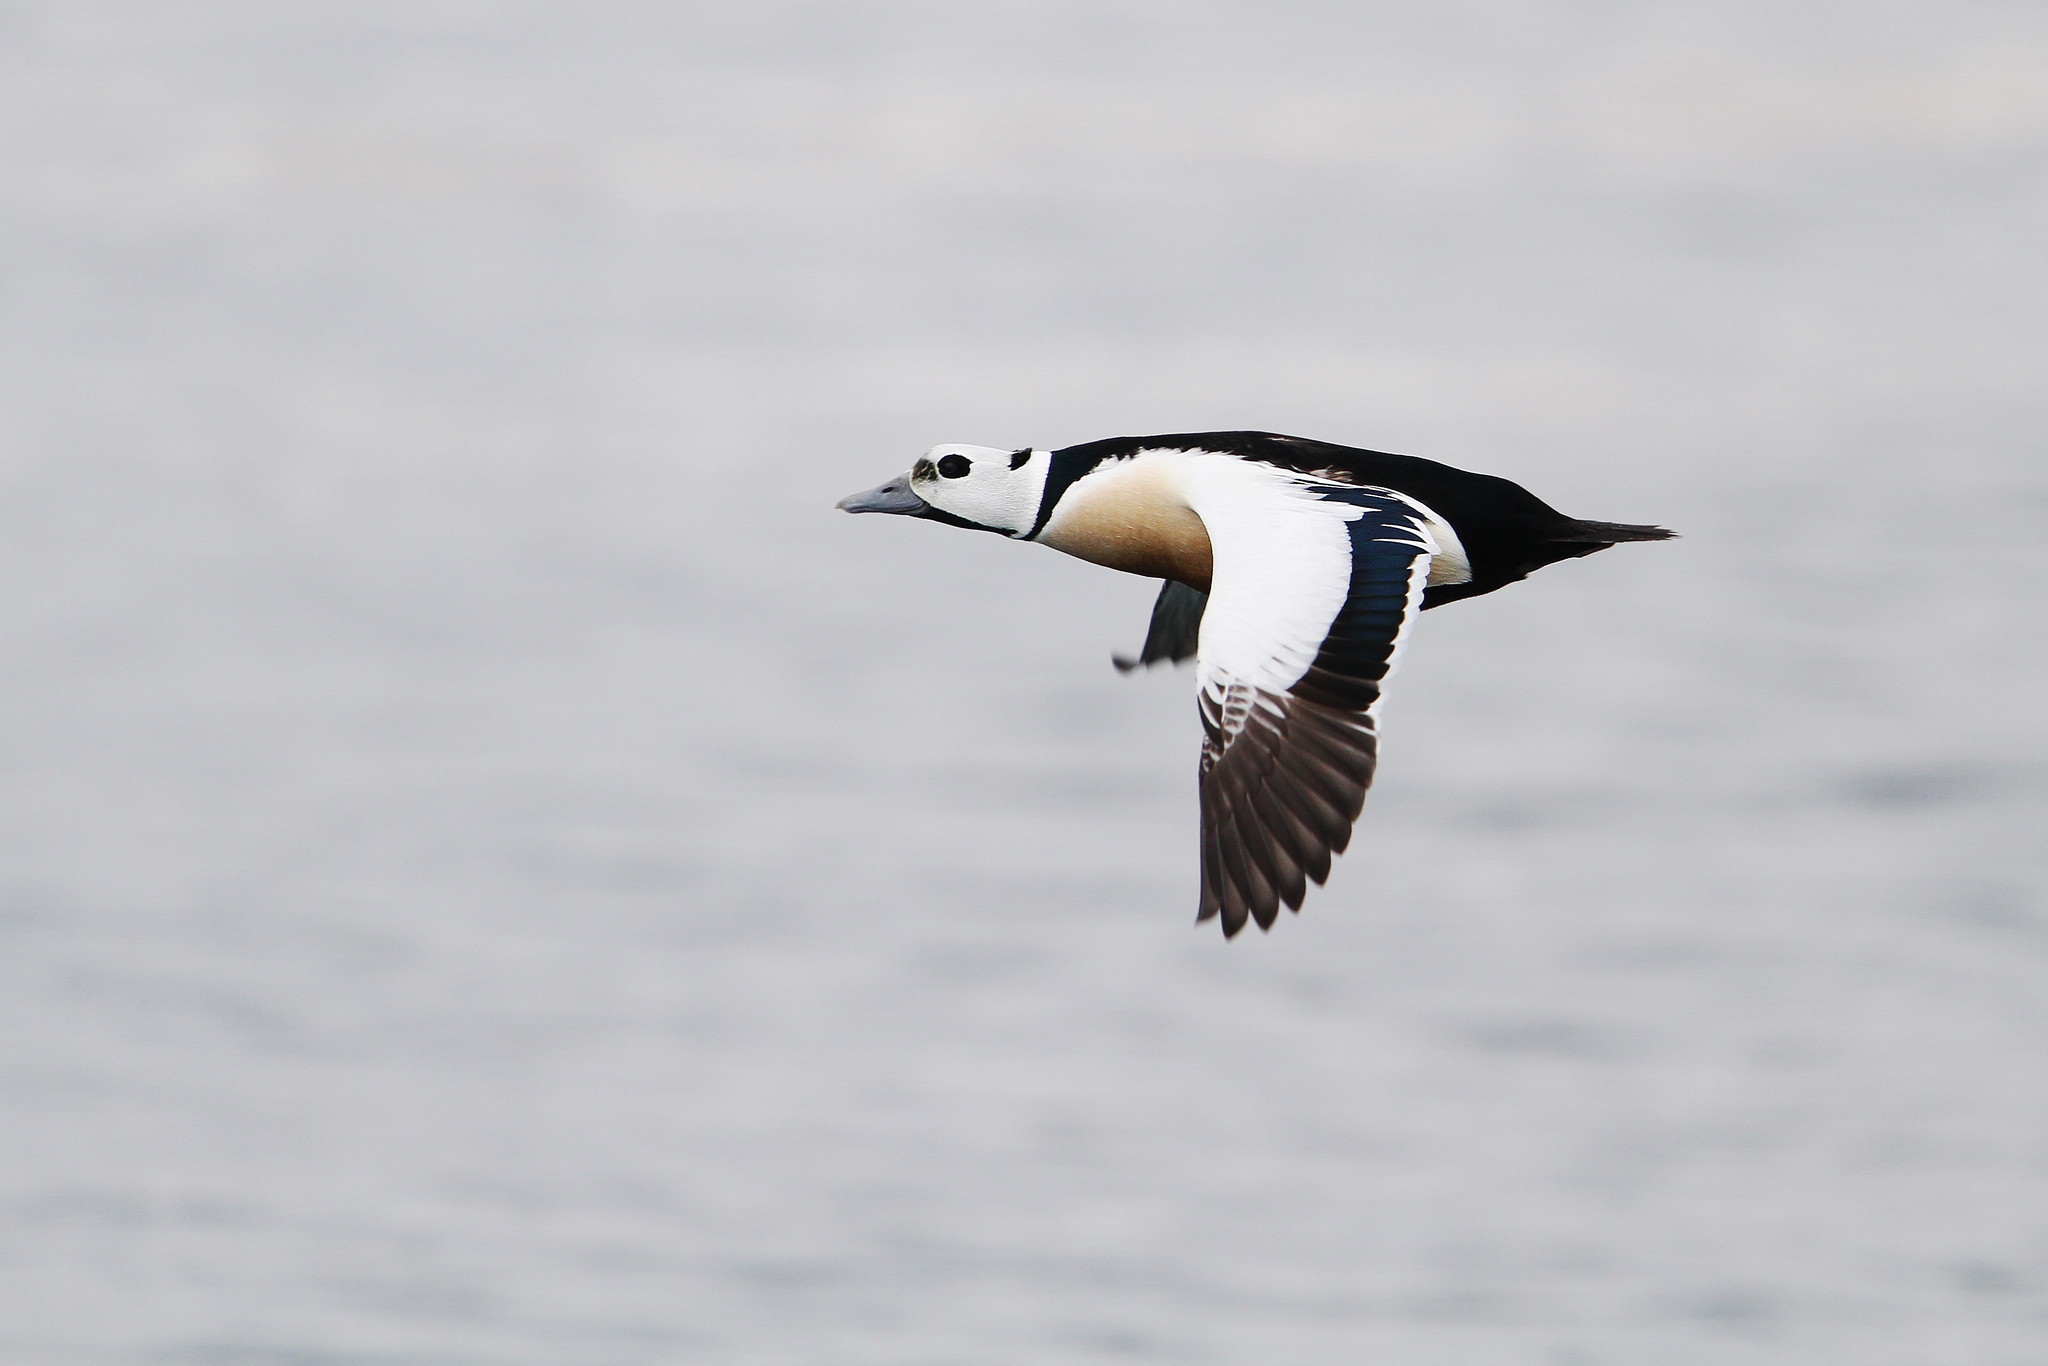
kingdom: Animalia
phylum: Chordata
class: Aves
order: Anseriformes
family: Anatidae
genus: Polysticta
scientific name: Polysticta stelleri
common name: Steller's eider
